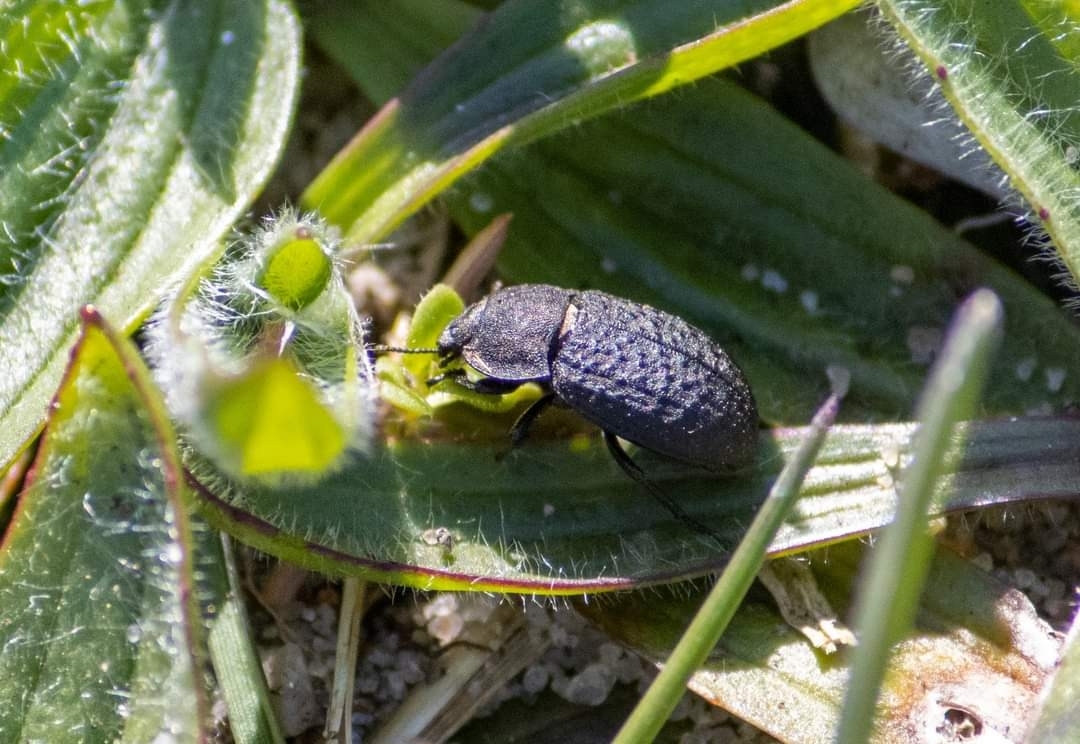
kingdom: Animalia
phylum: Arthropoda
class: Insecta
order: Coleoptera
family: Tenebrionidae
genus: Opatrum
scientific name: Opatrum sabulosum
